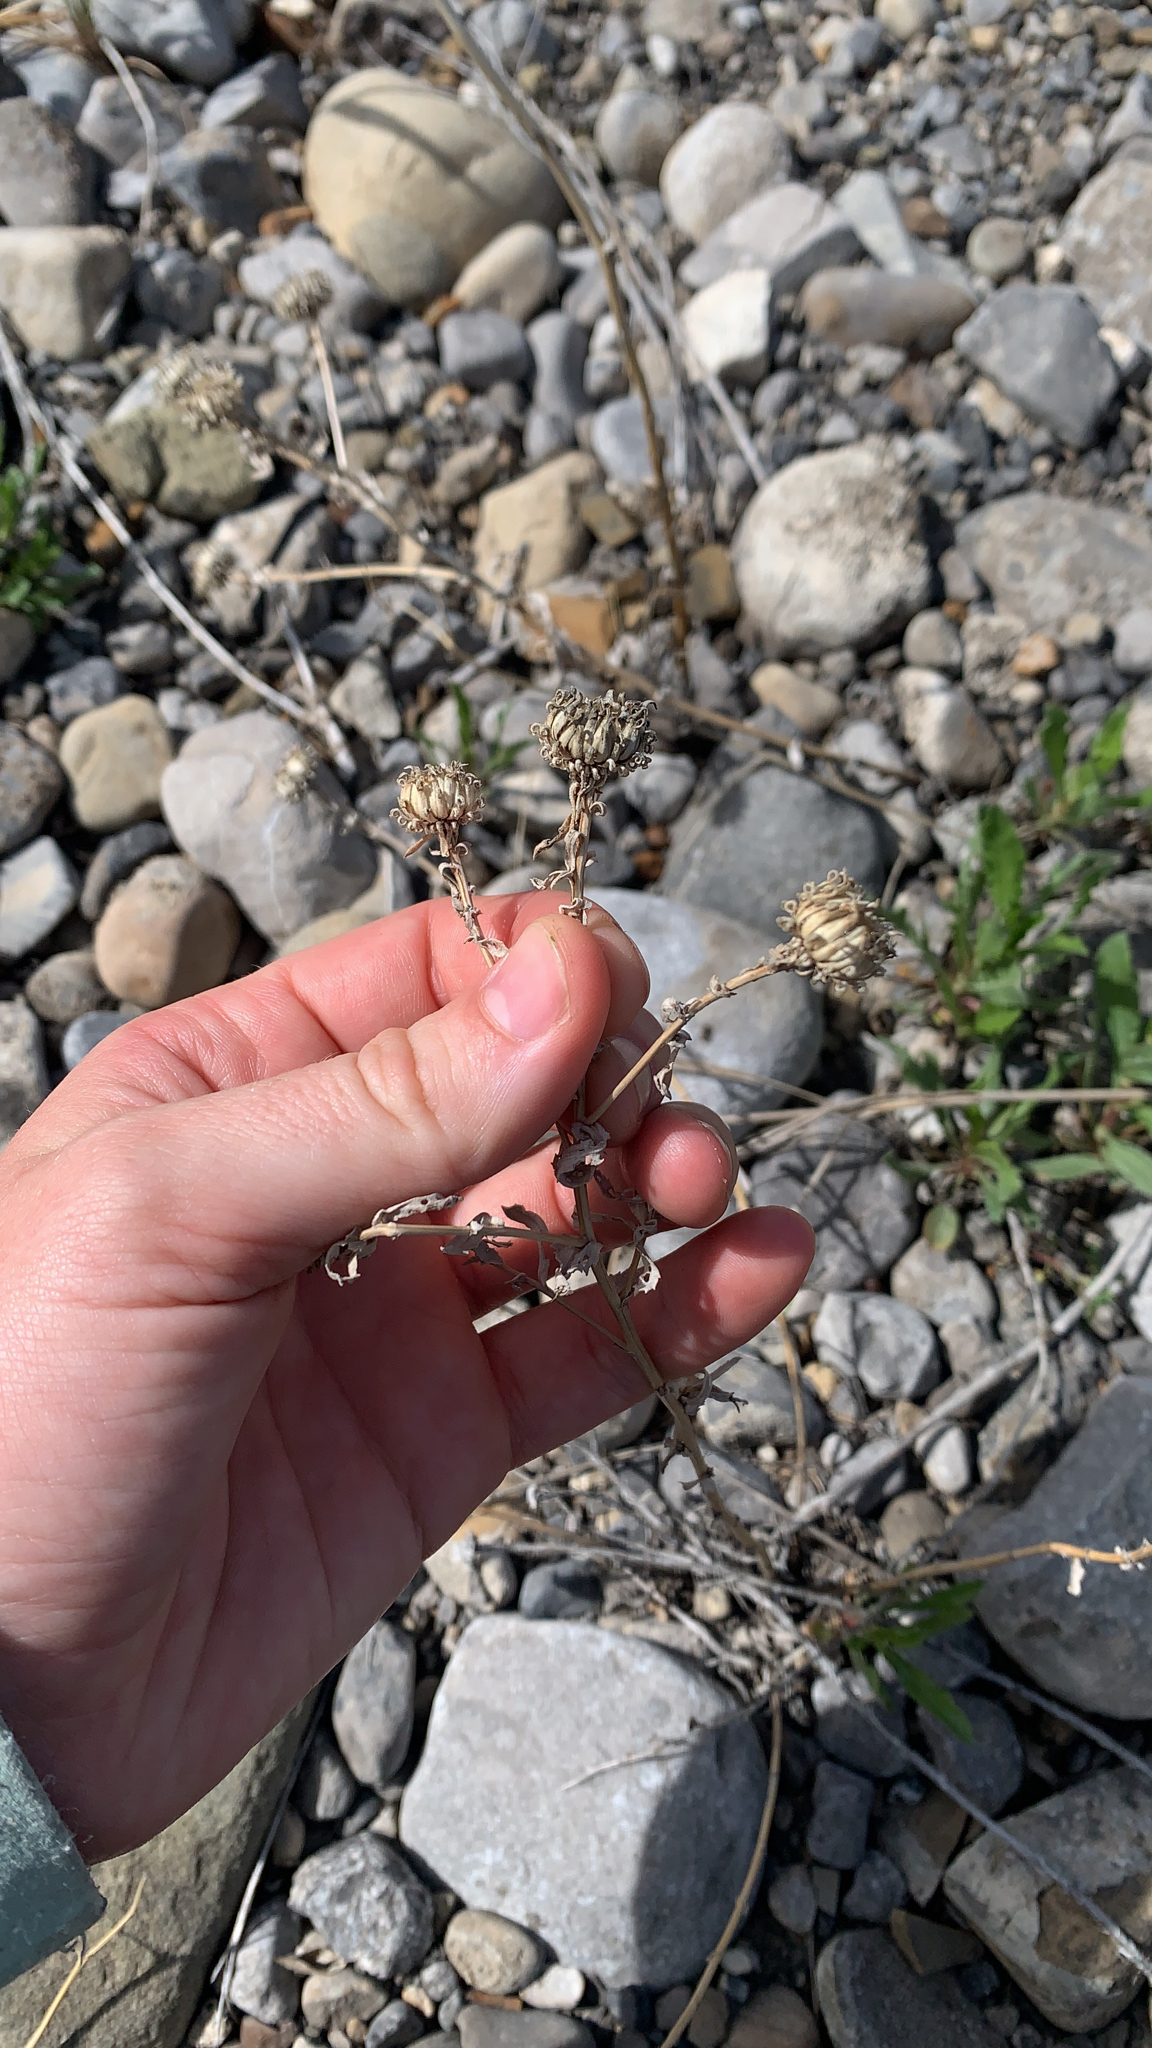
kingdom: Plantae
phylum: Tracheophyta
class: Magnoliopsida
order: Asterales
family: Asteraceae
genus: Grindelia
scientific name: Grindelia squarrosa
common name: Curly-cup gumweed
